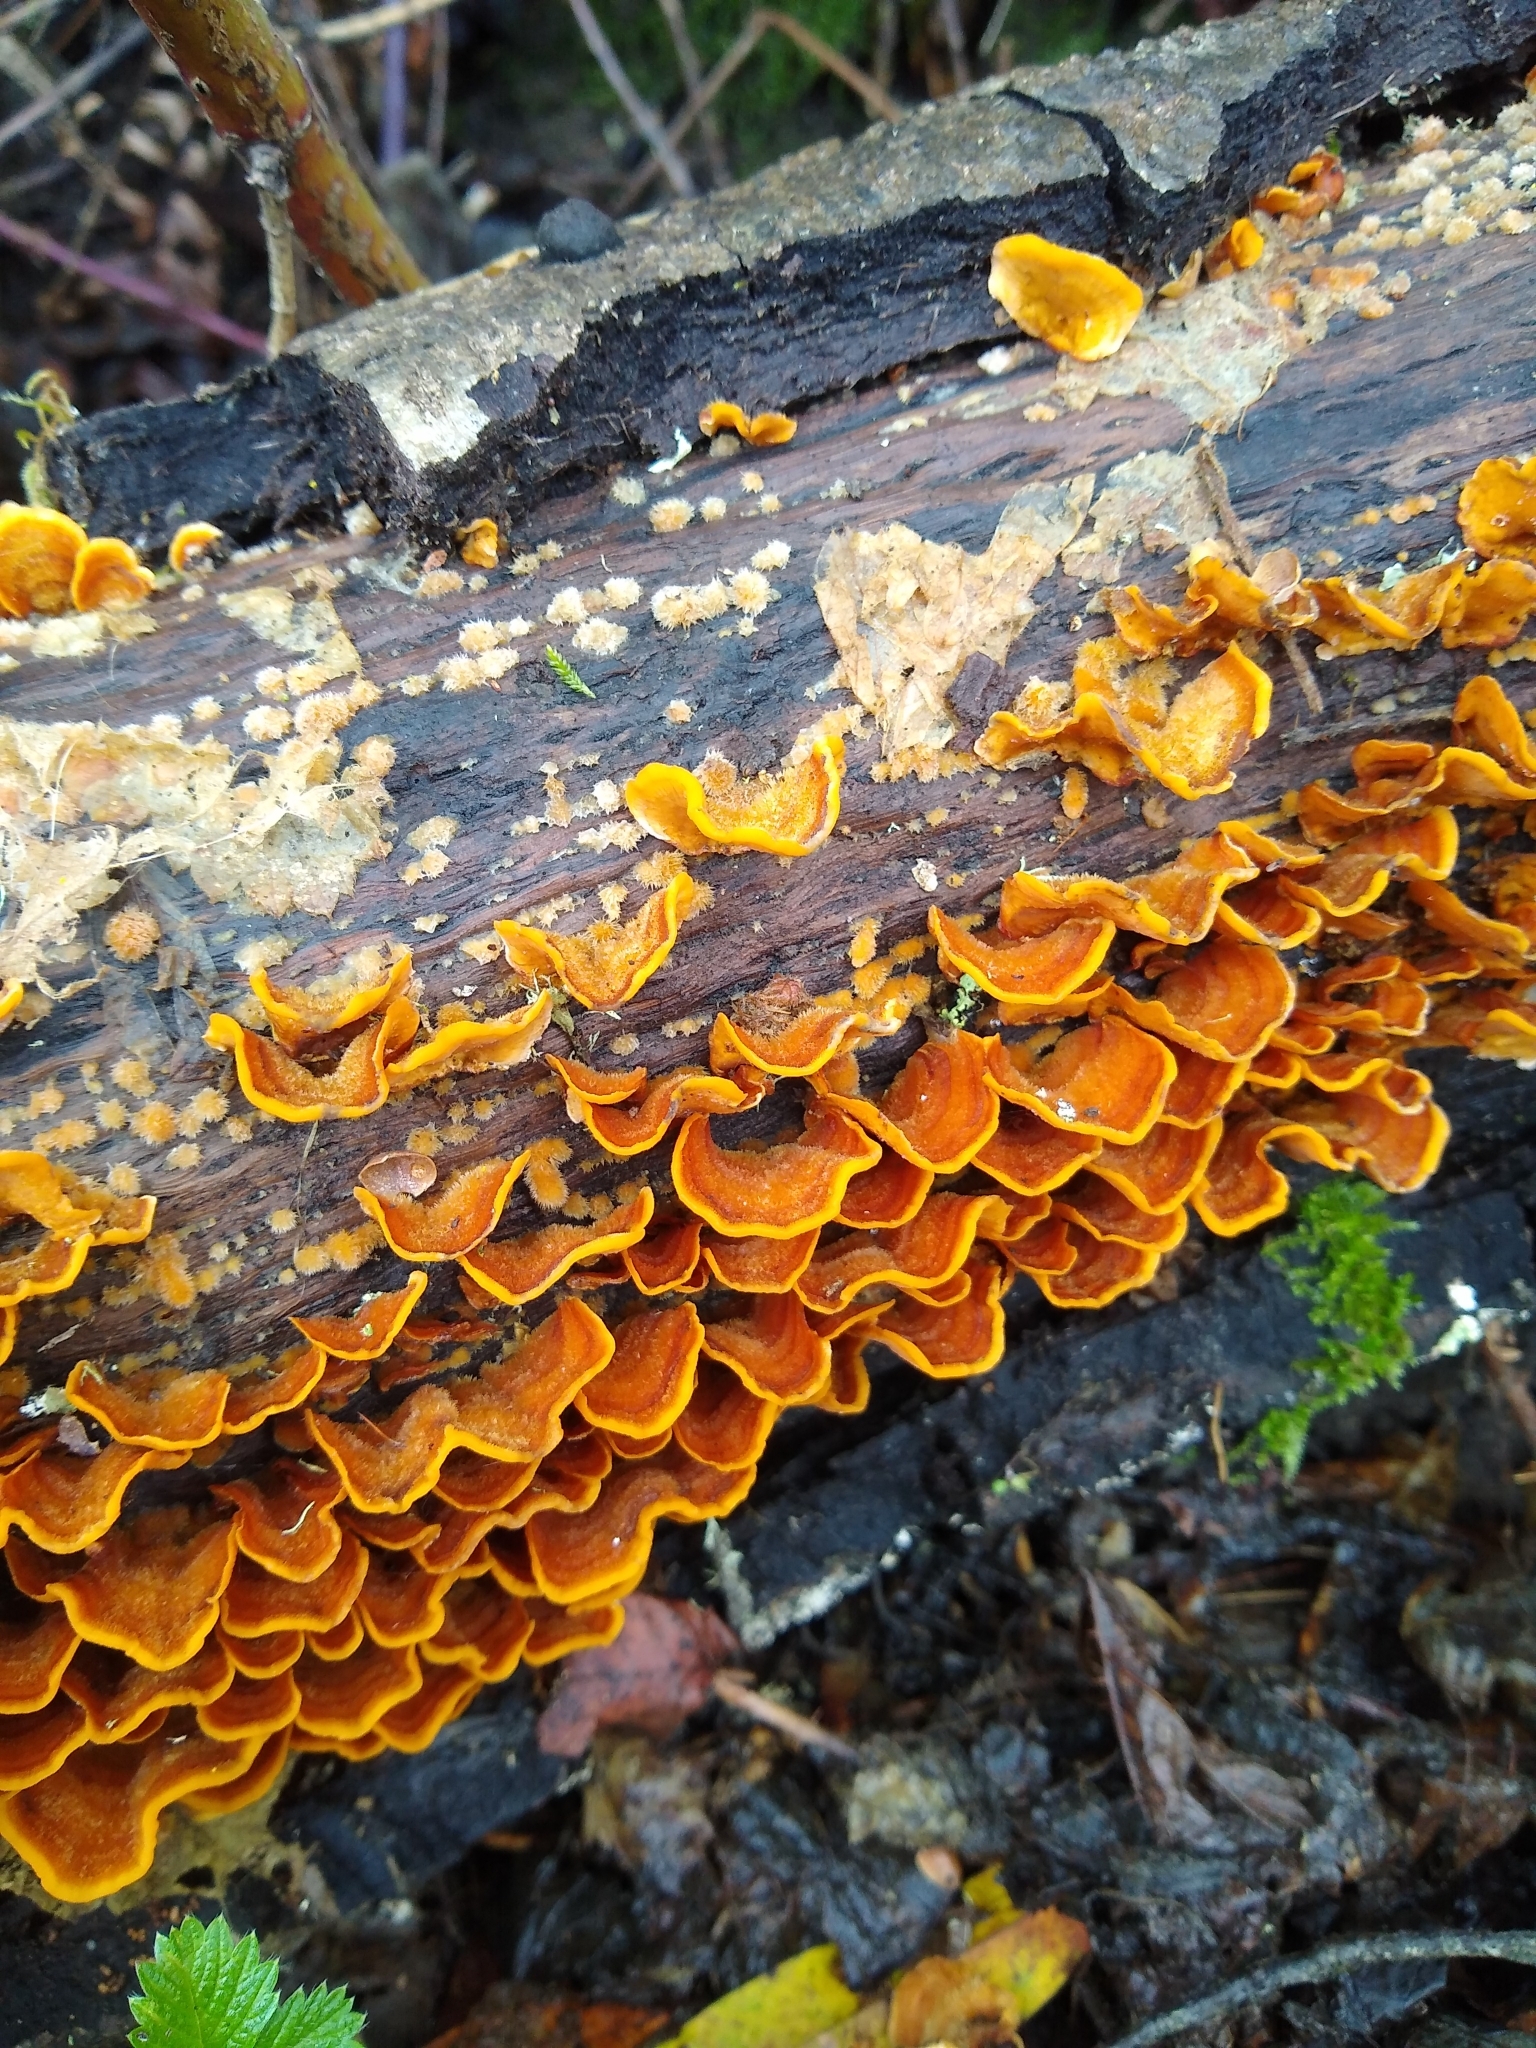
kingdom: Fungi
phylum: Basidiomycota
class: Agaricomycetes
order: Russulales
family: Stereaceae
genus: Stereum
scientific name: Stereum hirsutum
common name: Hairy curtain crust
